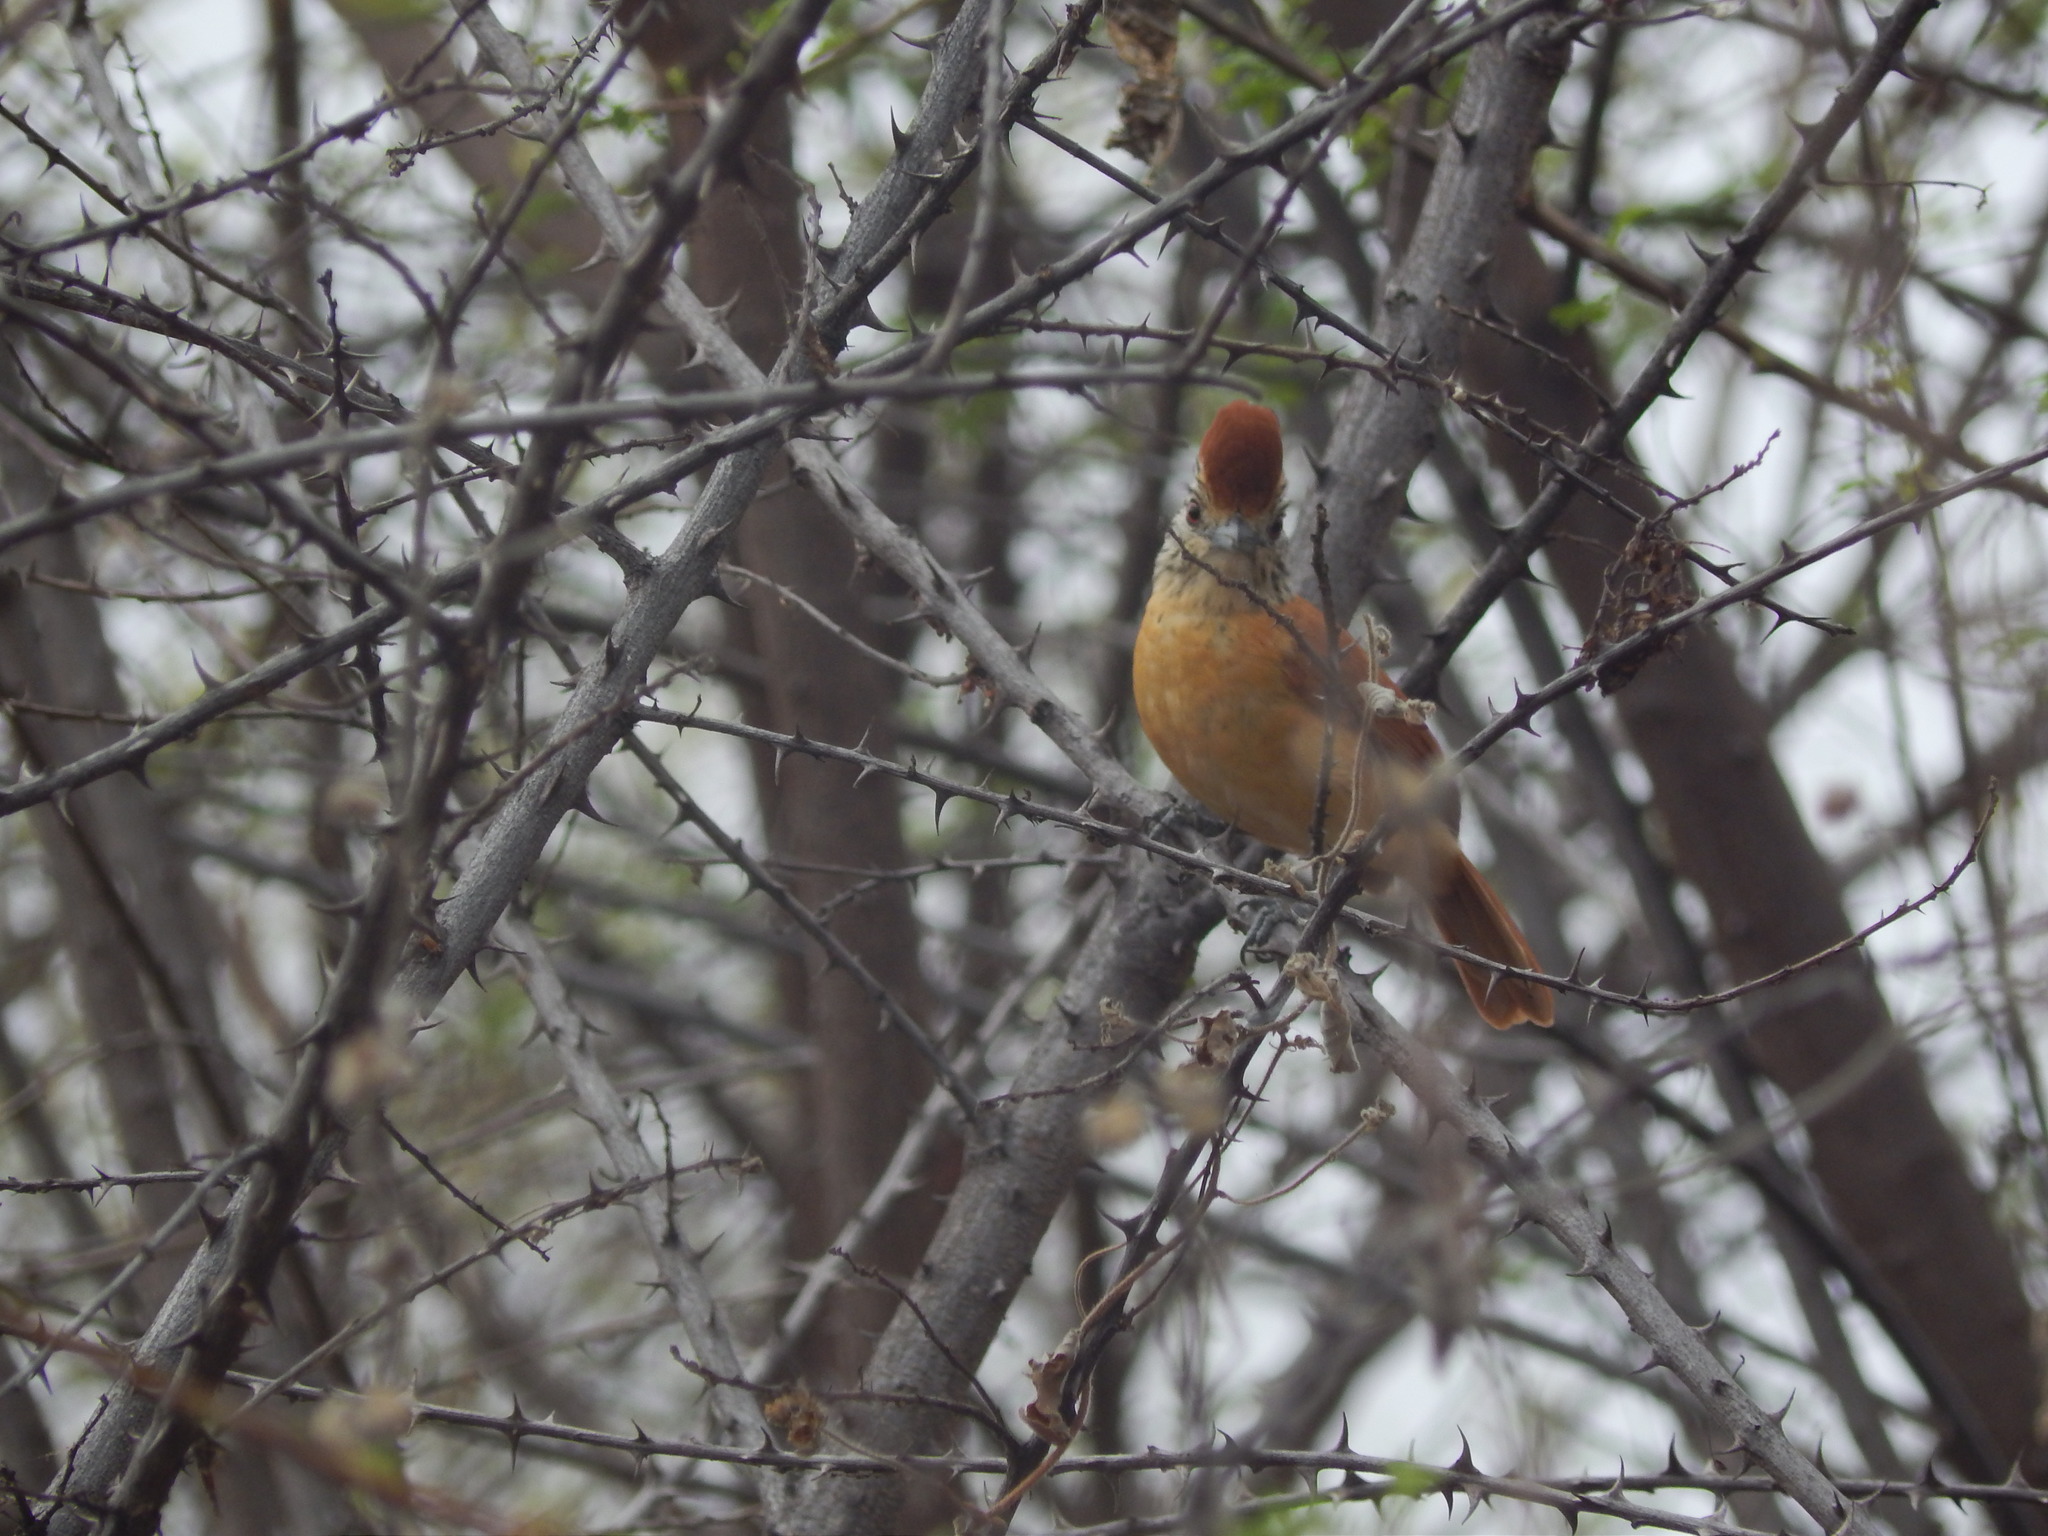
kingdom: Animalia
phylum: Chordata
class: Aves
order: Passeriformes
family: Thamnophilidae
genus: Thamnophilus
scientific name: Thamnophilus doliatus
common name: Barred antshrike
